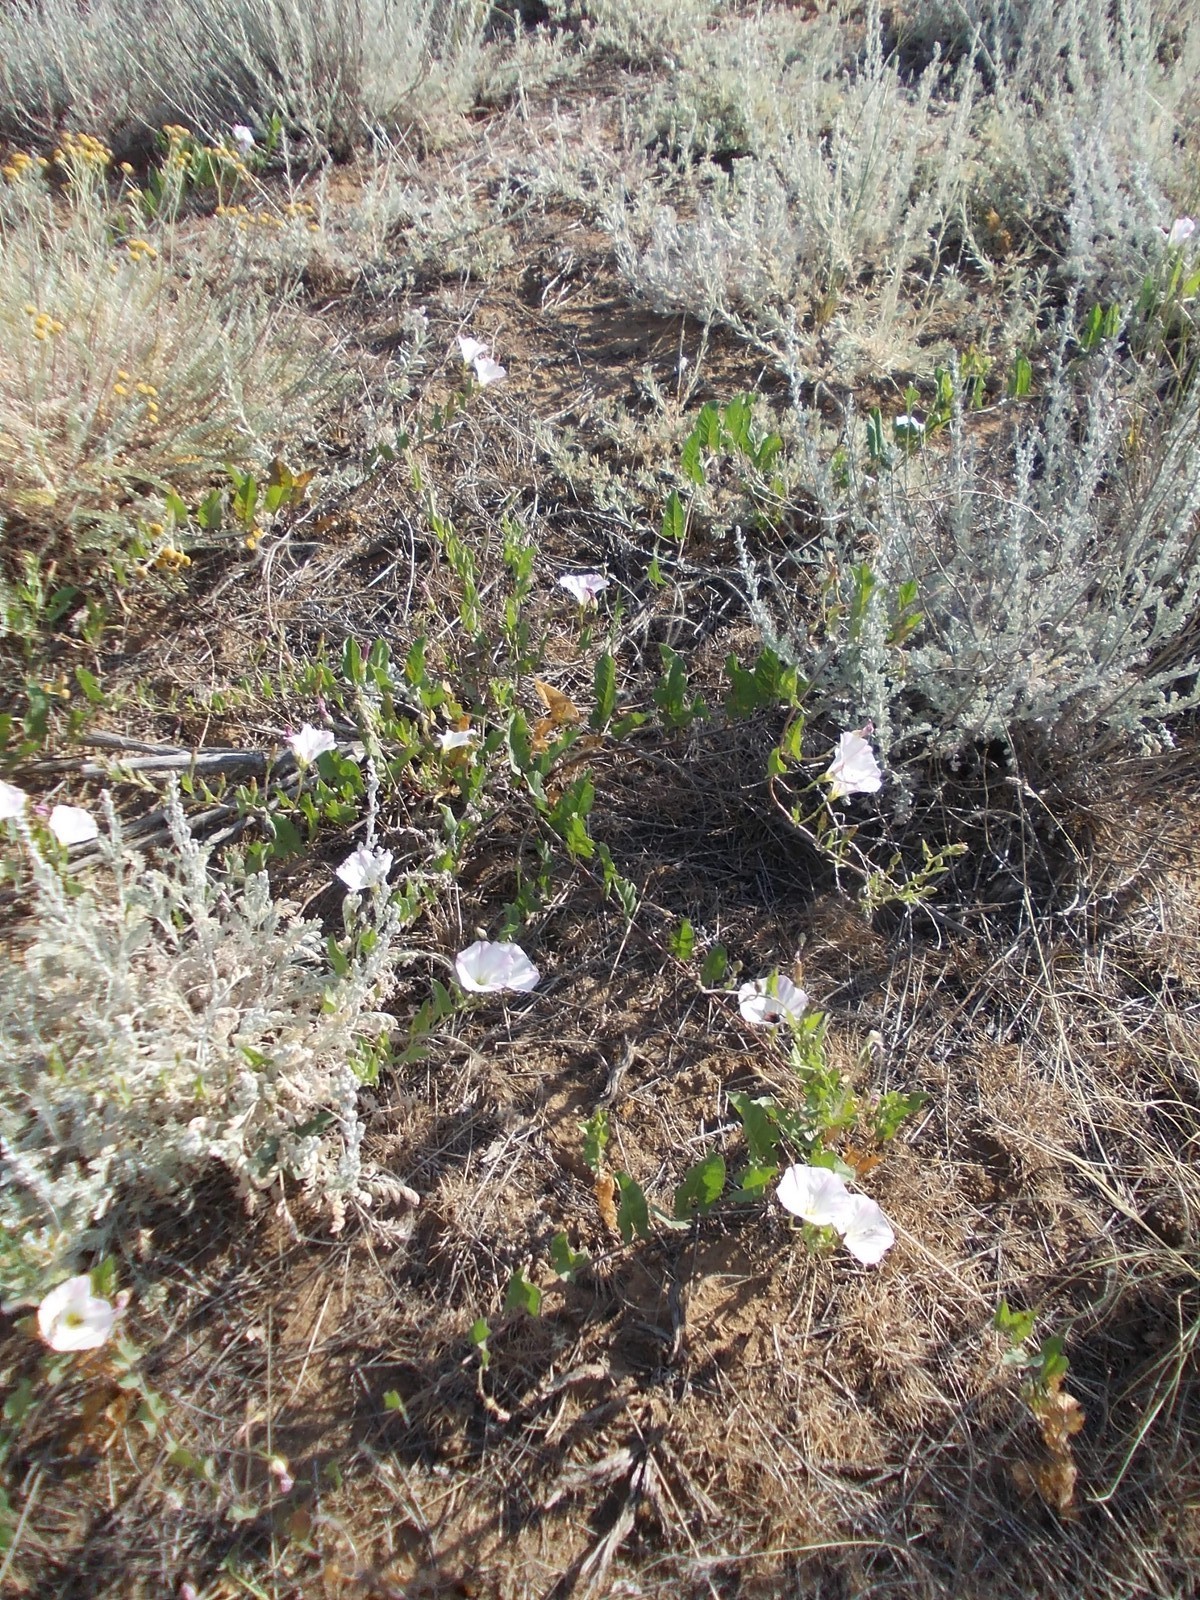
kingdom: Plantae
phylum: Tracheophyta
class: Magnoliopsida
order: Solanales
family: Convolvulaceae
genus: Convolvulus
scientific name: Convolvulus arvensis
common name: Field bindweed
